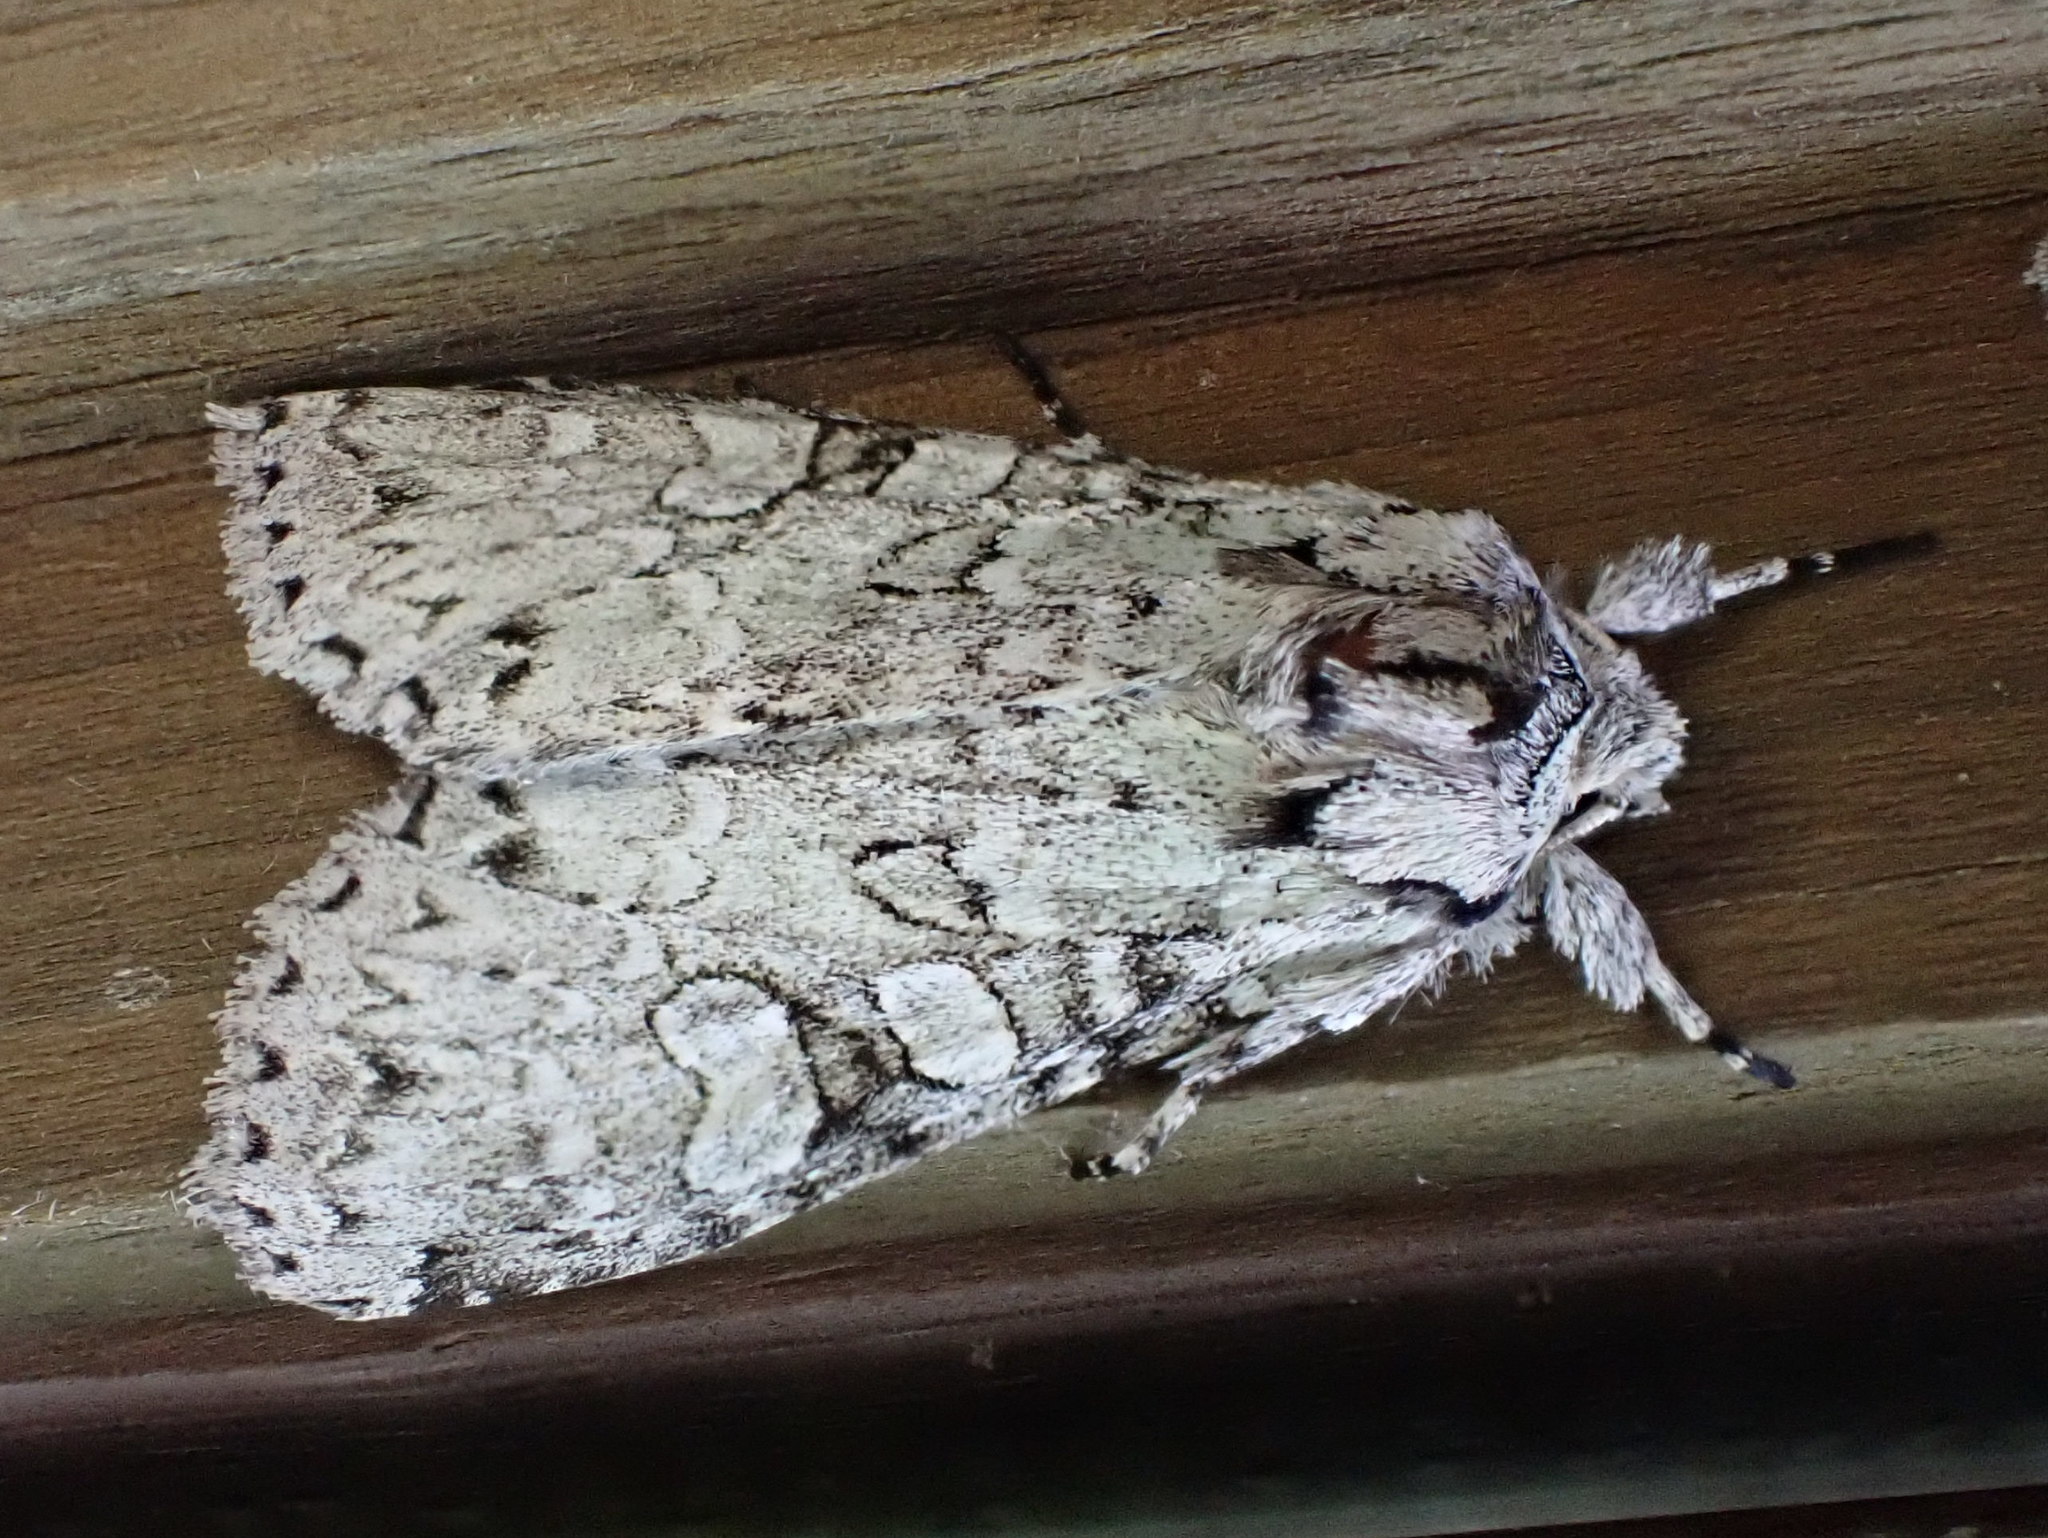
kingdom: Animalia
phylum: Arthropoda
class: Insecta
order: Lepidoptera
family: Noctuidae
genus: Polia
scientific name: Polia nimbosa
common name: Stormy arches
